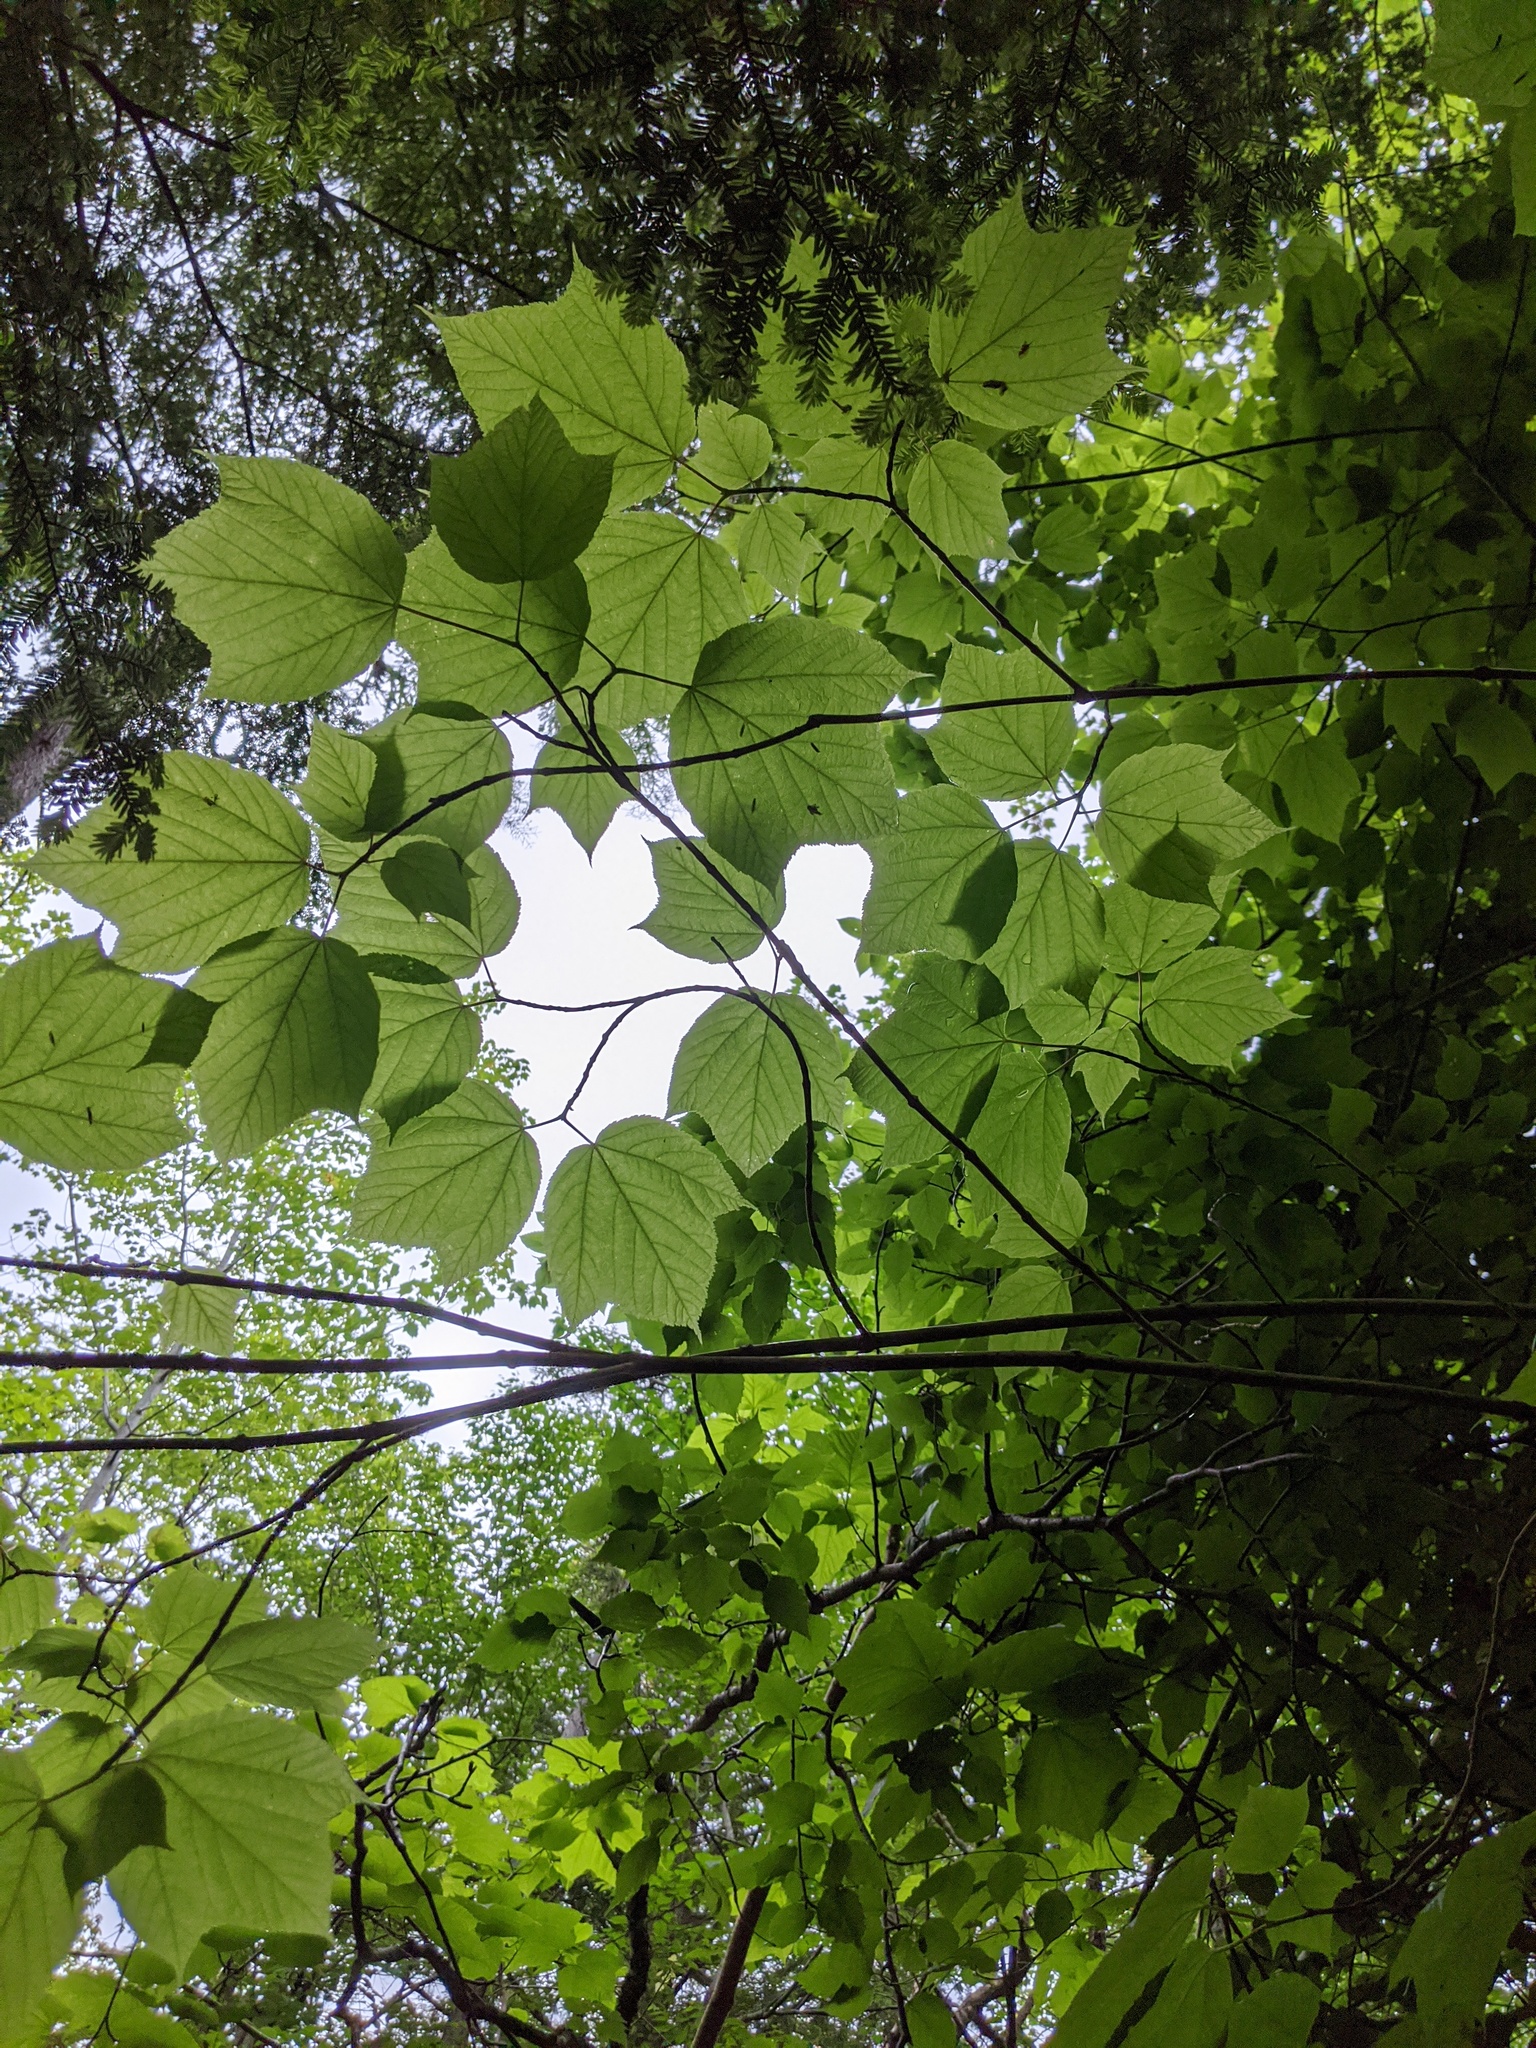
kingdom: Plantae
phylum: Tracheophyta
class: Magnoliopsida
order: Sapindales
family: Sapindaceae
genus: Acer
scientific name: Acer pensylvanicum
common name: Moosewood
